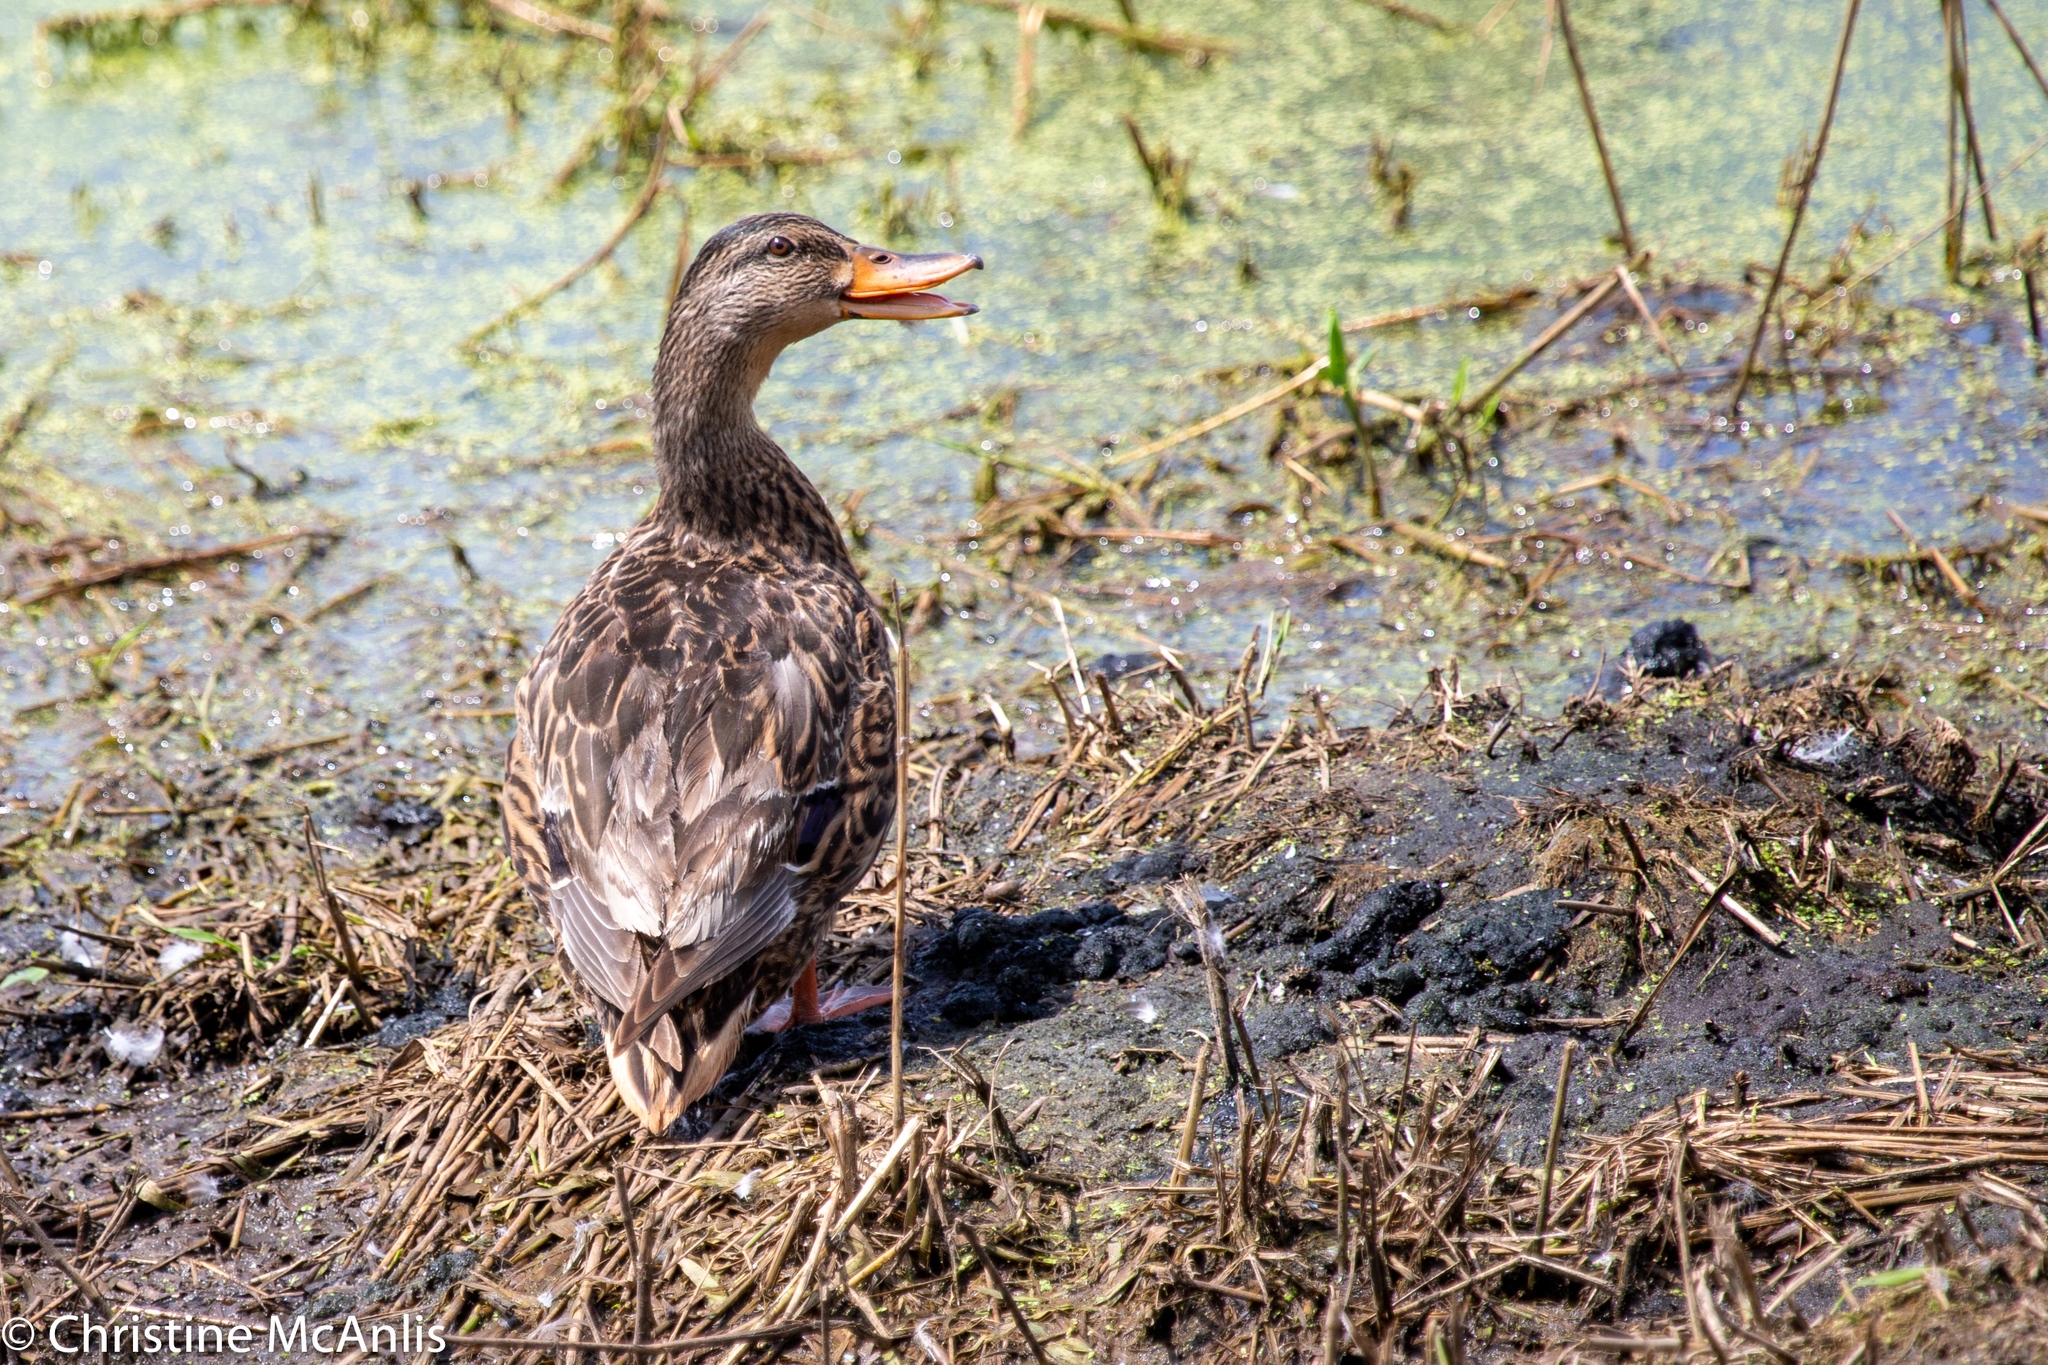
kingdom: Animalia
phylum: Chordata
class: Aves
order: Anseriformes
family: Anatidae
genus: Anas
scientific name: Anas platyrhynchos
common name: Mallard
